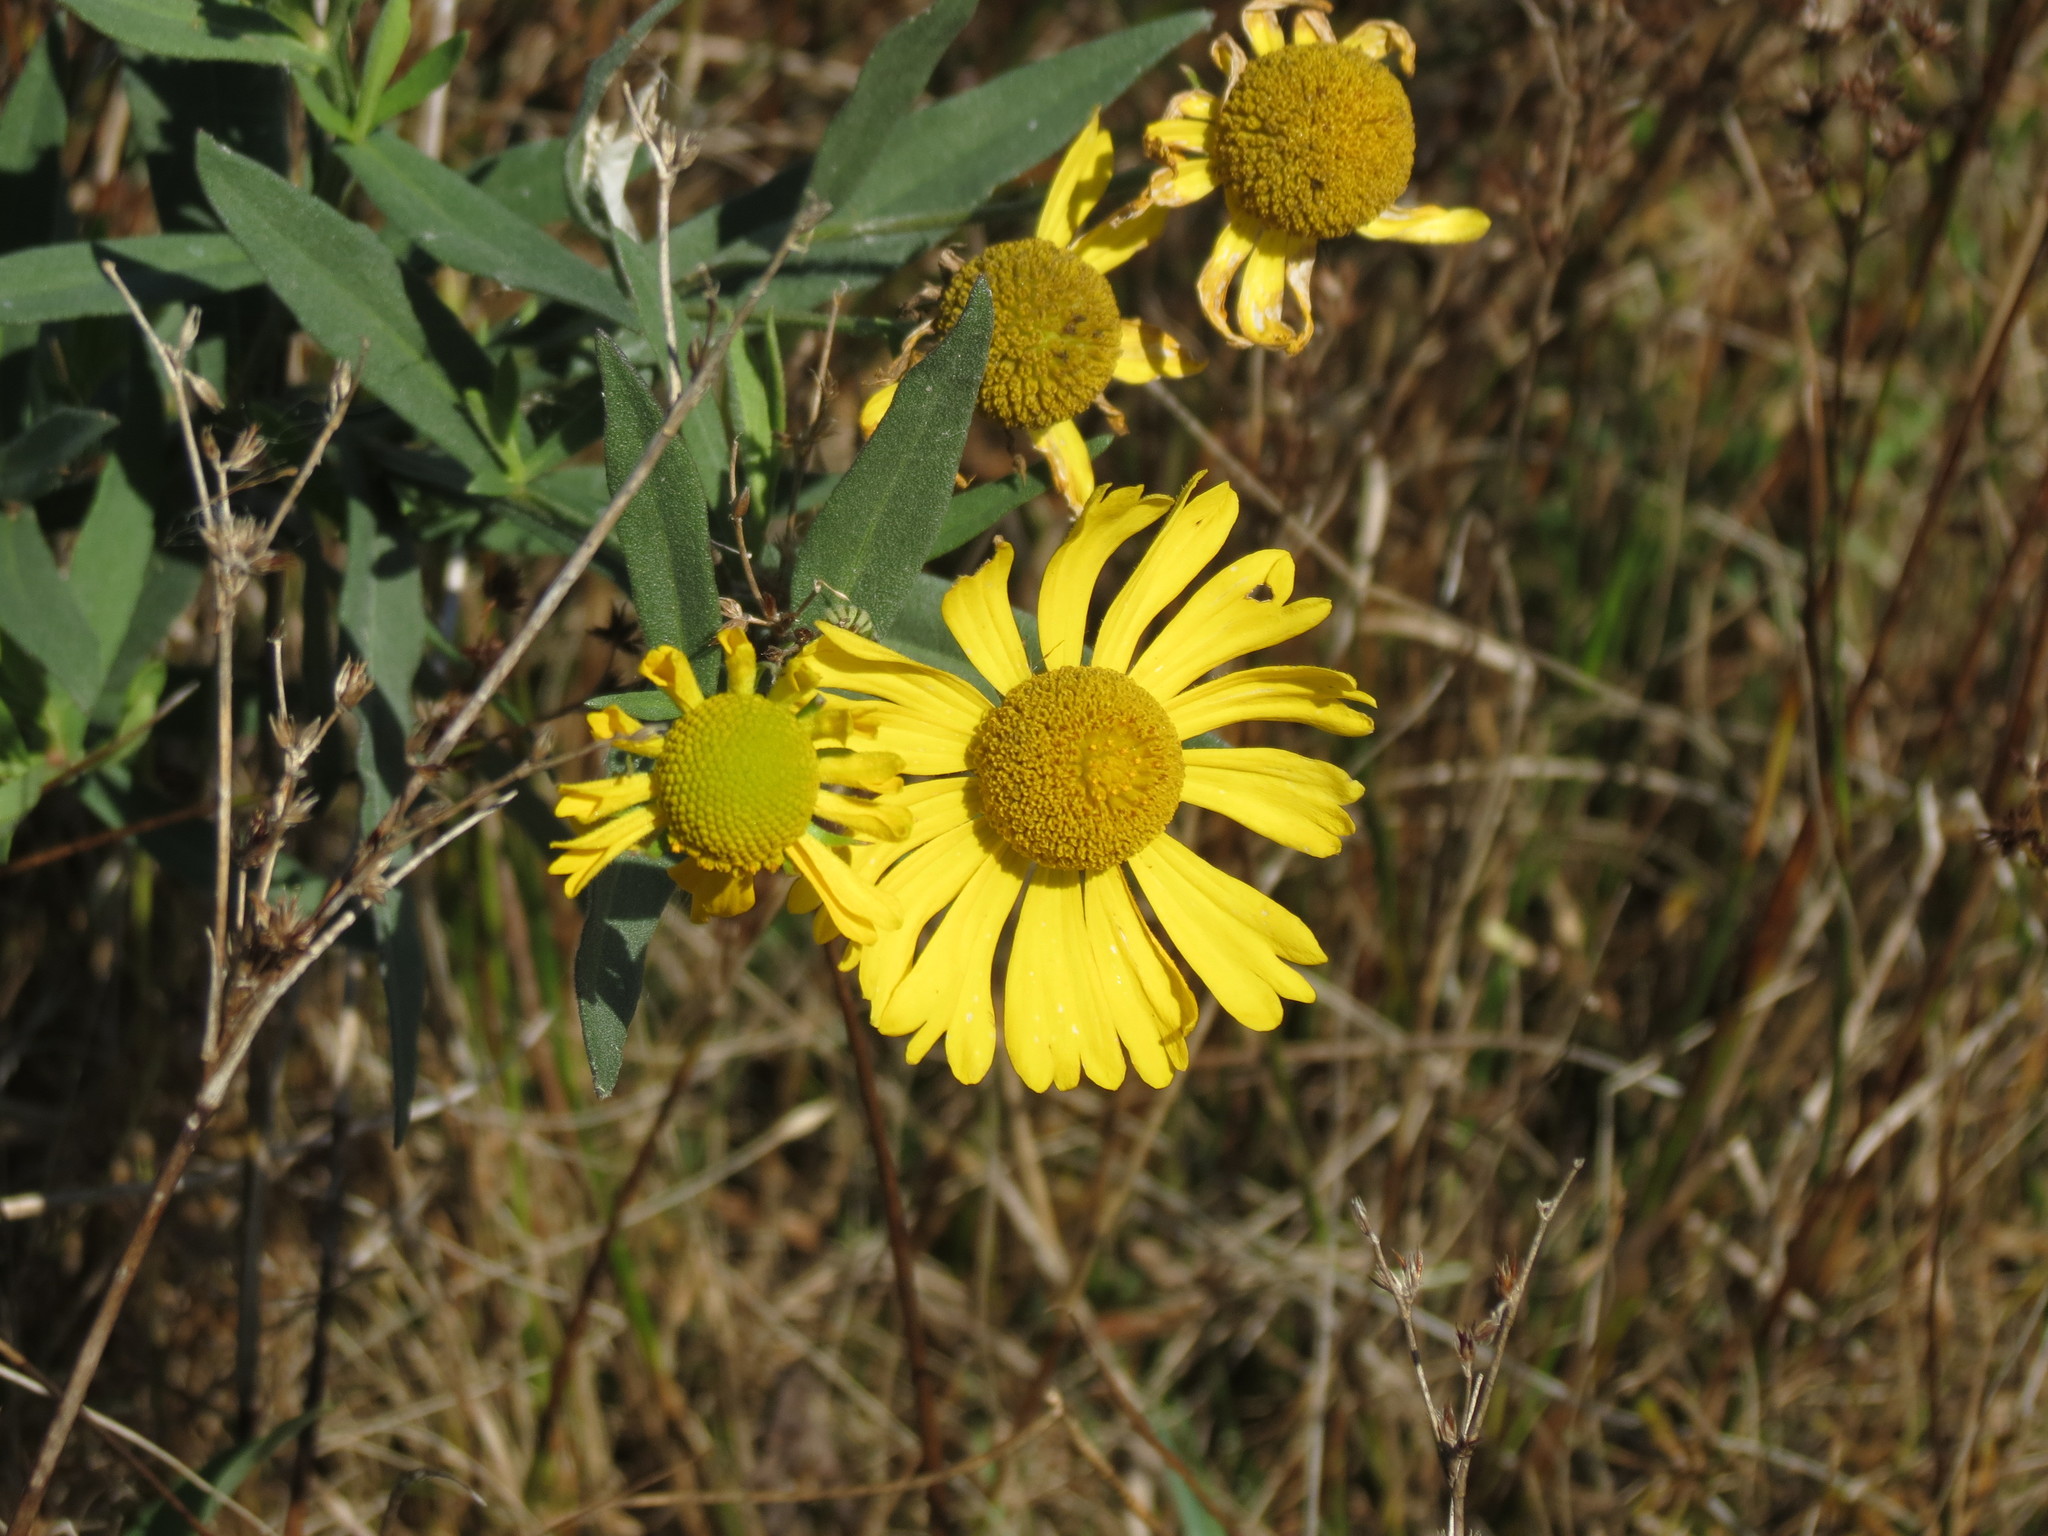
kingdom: Plantae
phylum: Tracheophyta
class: Magnoliopsida
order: Asterales
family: Asteraceae
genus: Helenium
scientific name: Helenium autumnale
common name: Sneezeweed
